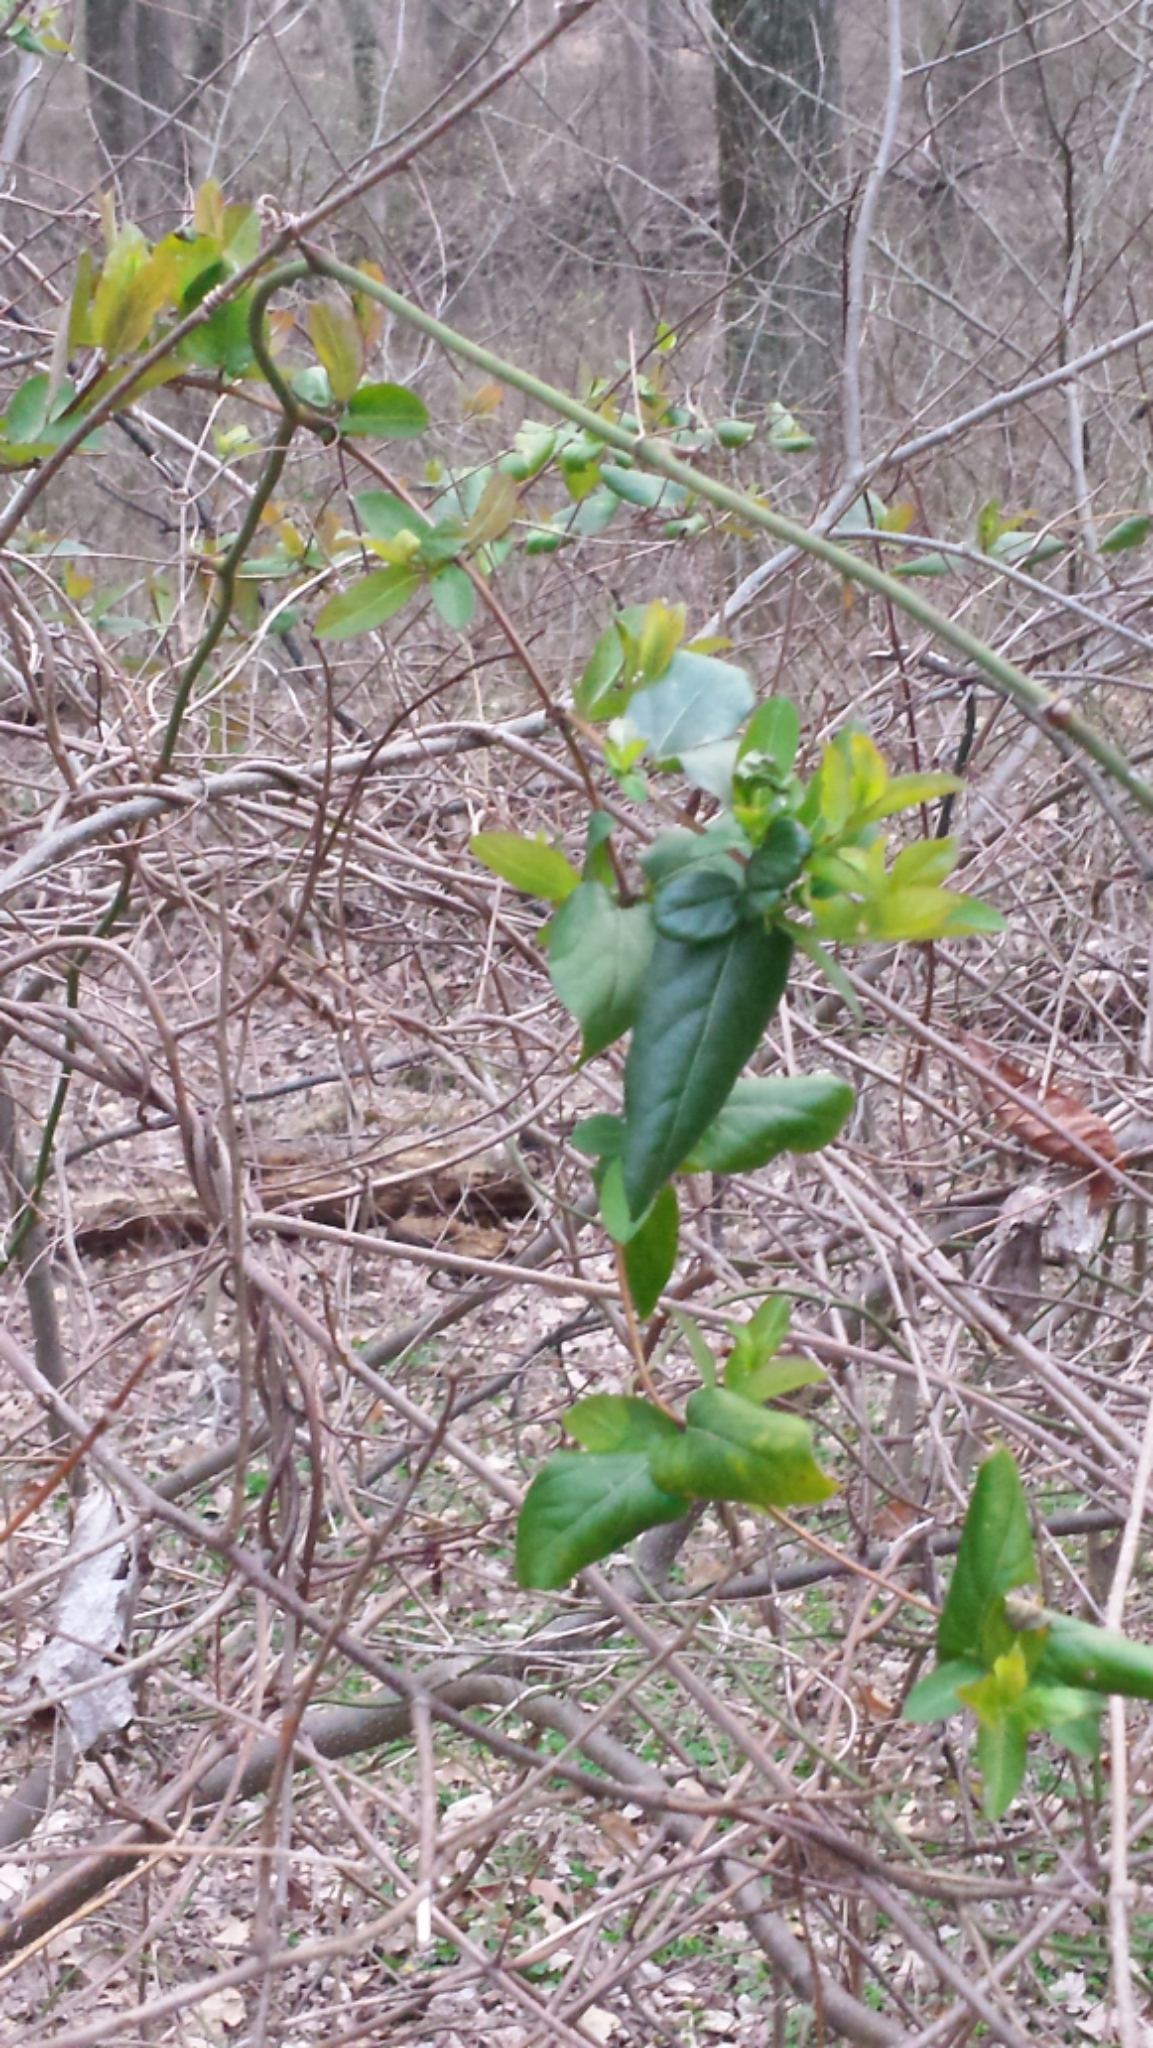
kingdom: Plantae
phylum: Tracheophyta
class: Magnoliopsida
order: Dipsacales
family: Caprifoliaceae
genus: Lonicera
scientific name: Lonicera japonica
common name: Japanese honeysuckle
